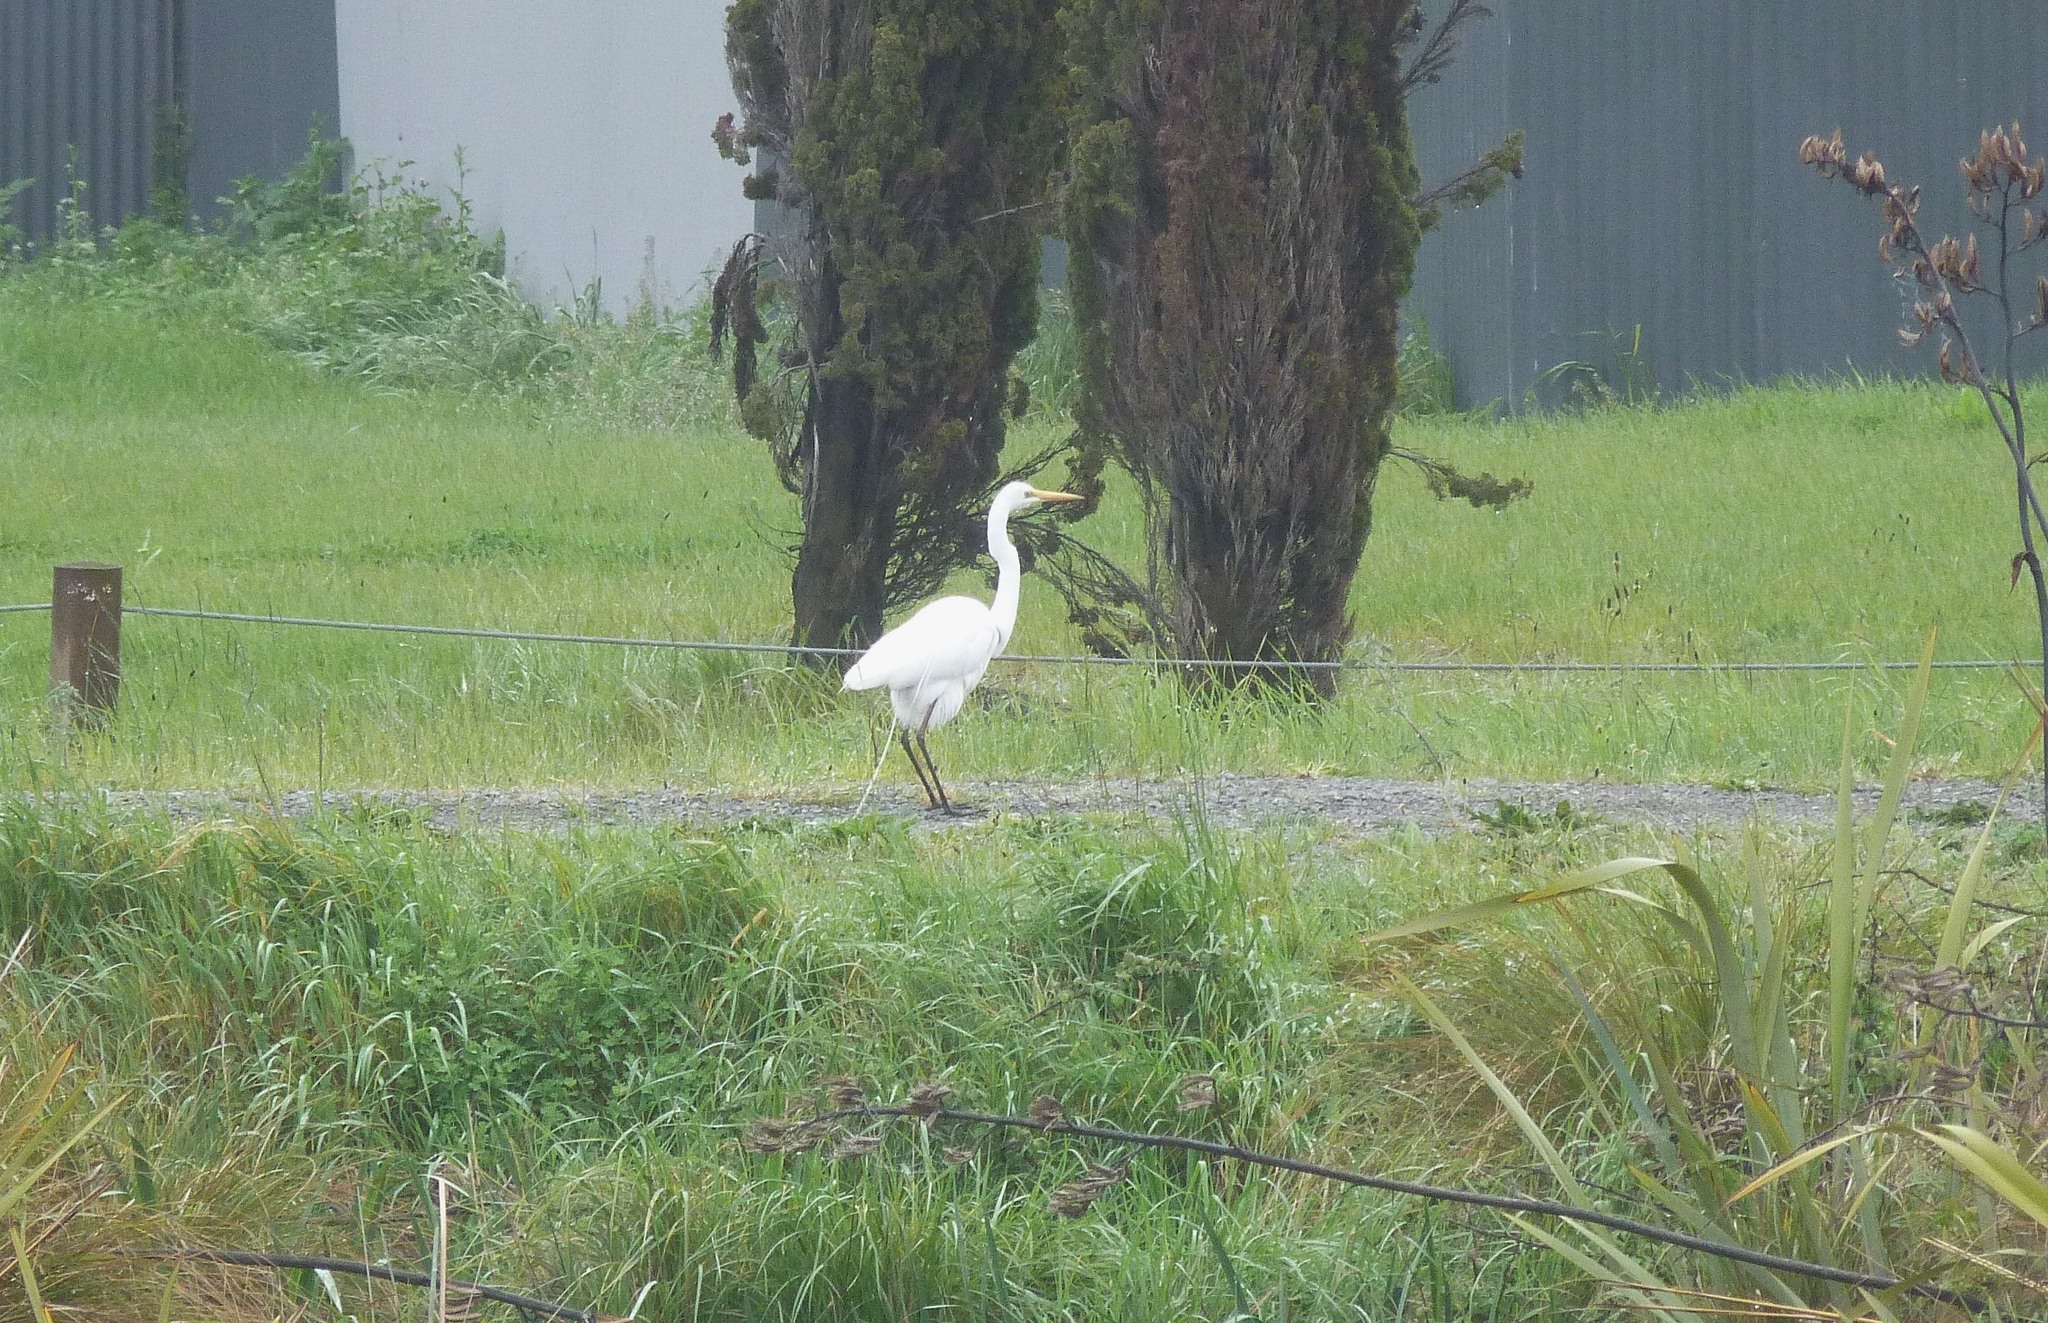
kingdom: Animalia
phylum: Chordata
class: Aves
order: Pelecaniformes
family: Ardeidae
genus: Ardea
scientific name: Ardea modesta
